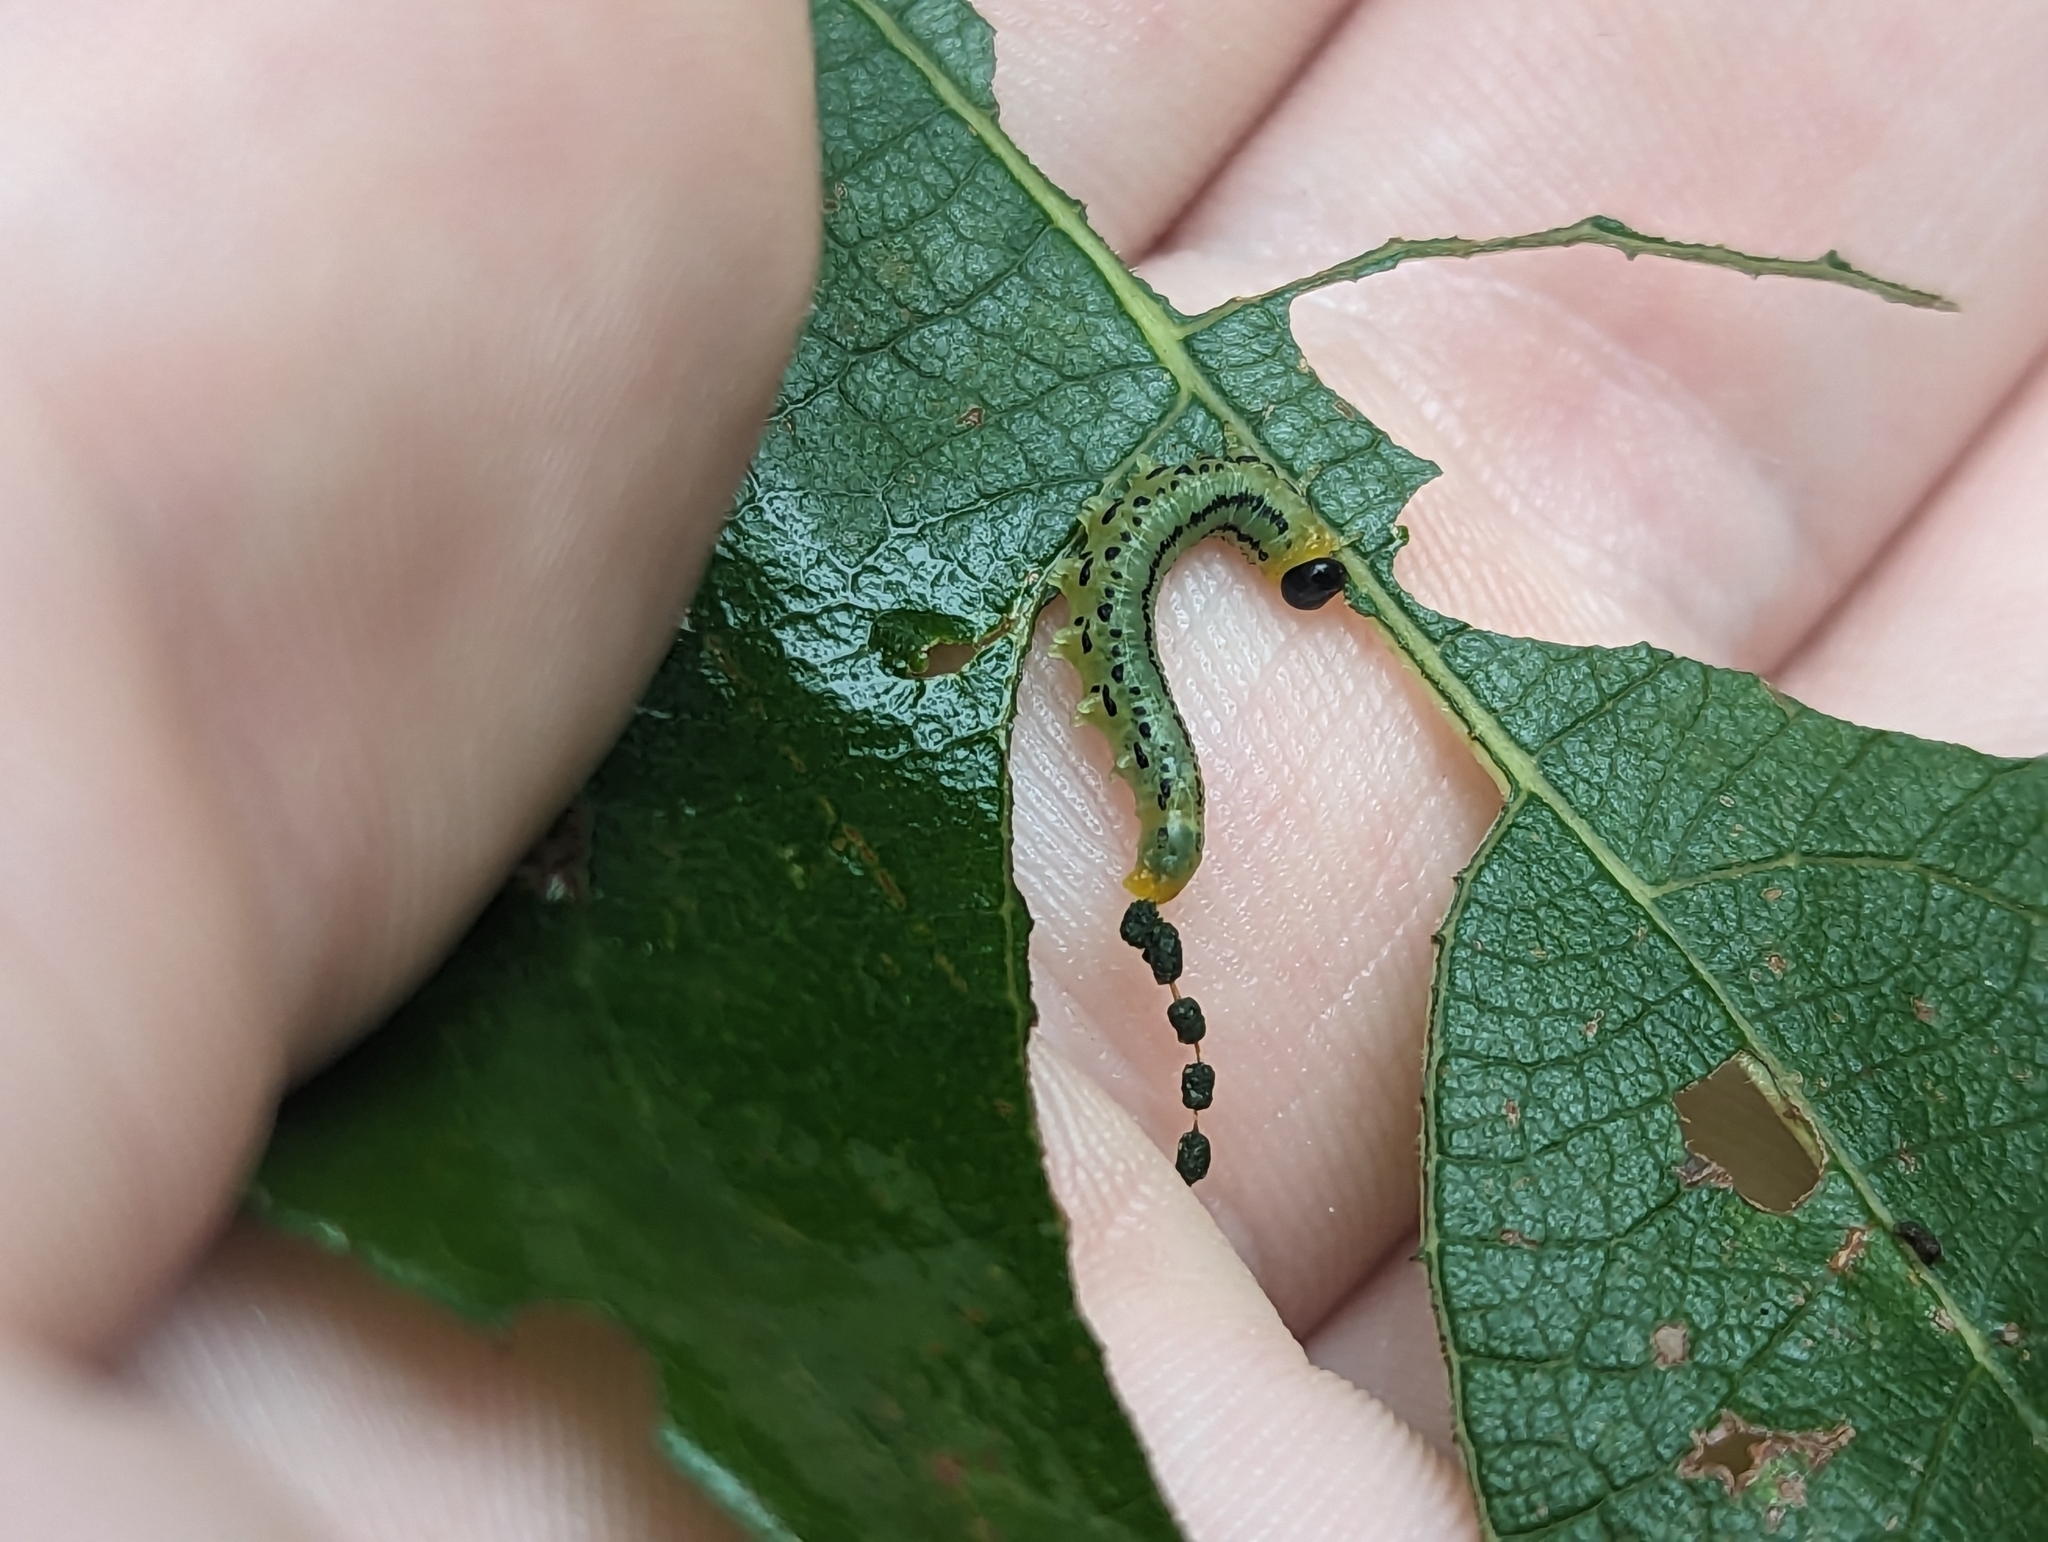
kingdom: Animalia
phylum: Arthropoda
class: Insecta
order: Hymenoptera
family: Tenthredinidae
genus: Nematus
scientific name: Nematus pavidus
